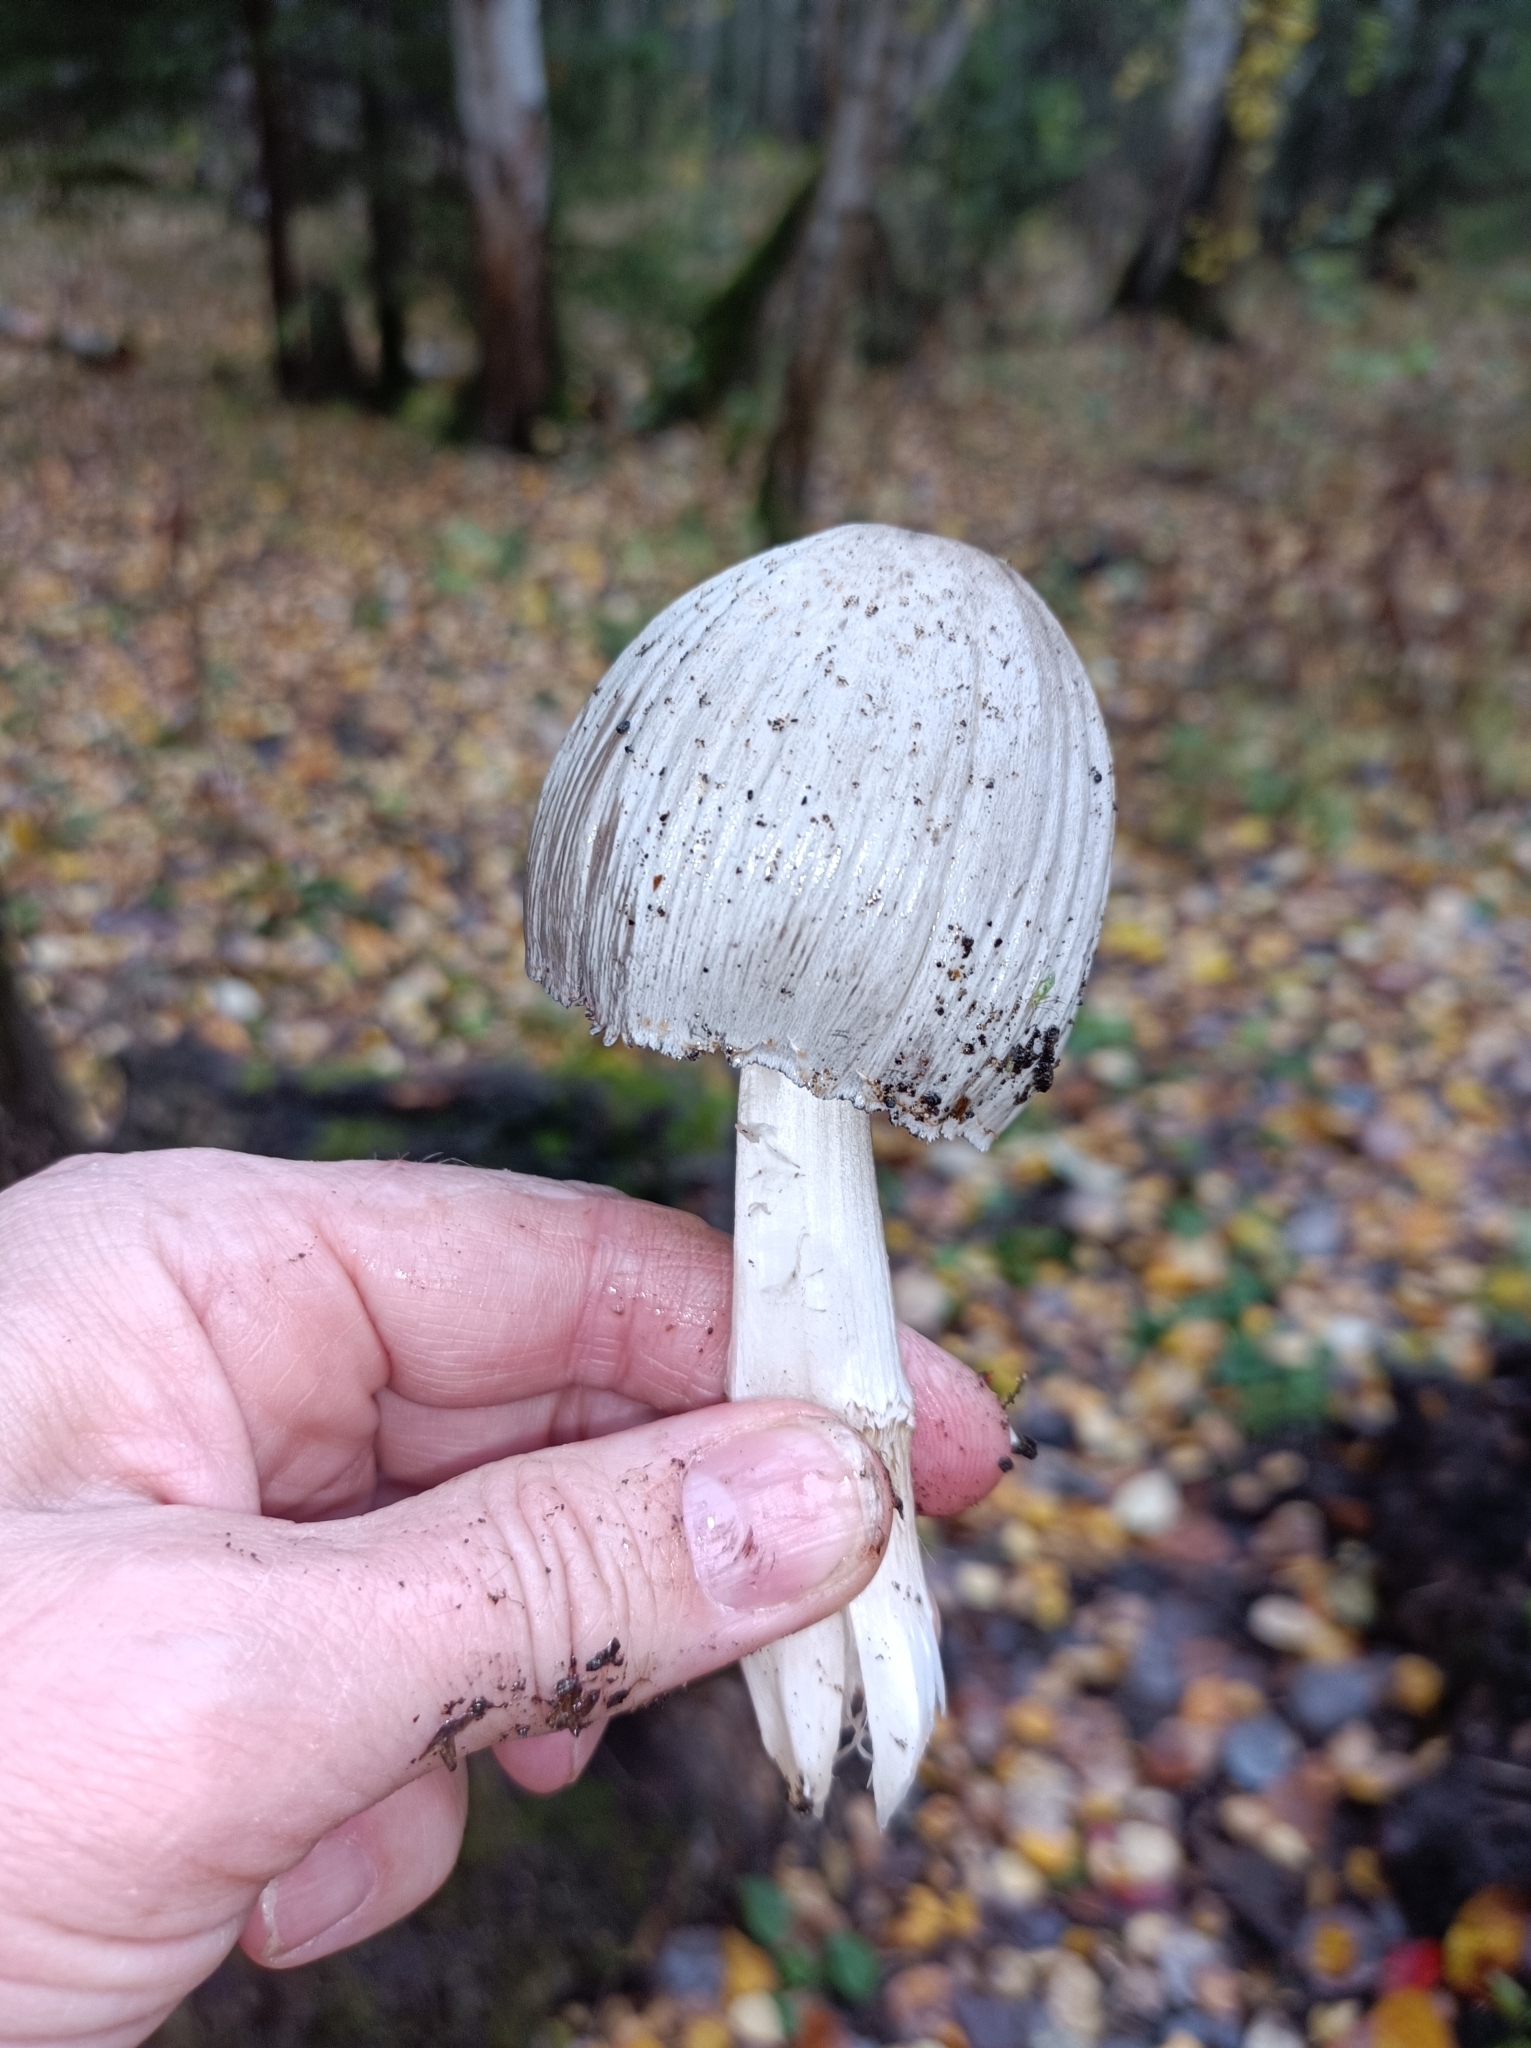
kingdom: Fungi
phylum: Basidiomycota
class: Agaricomycetes
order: Agaricales
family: Psathyrellaceae
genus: Coprinopsis
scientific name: Coprinopsis romagnesiana
